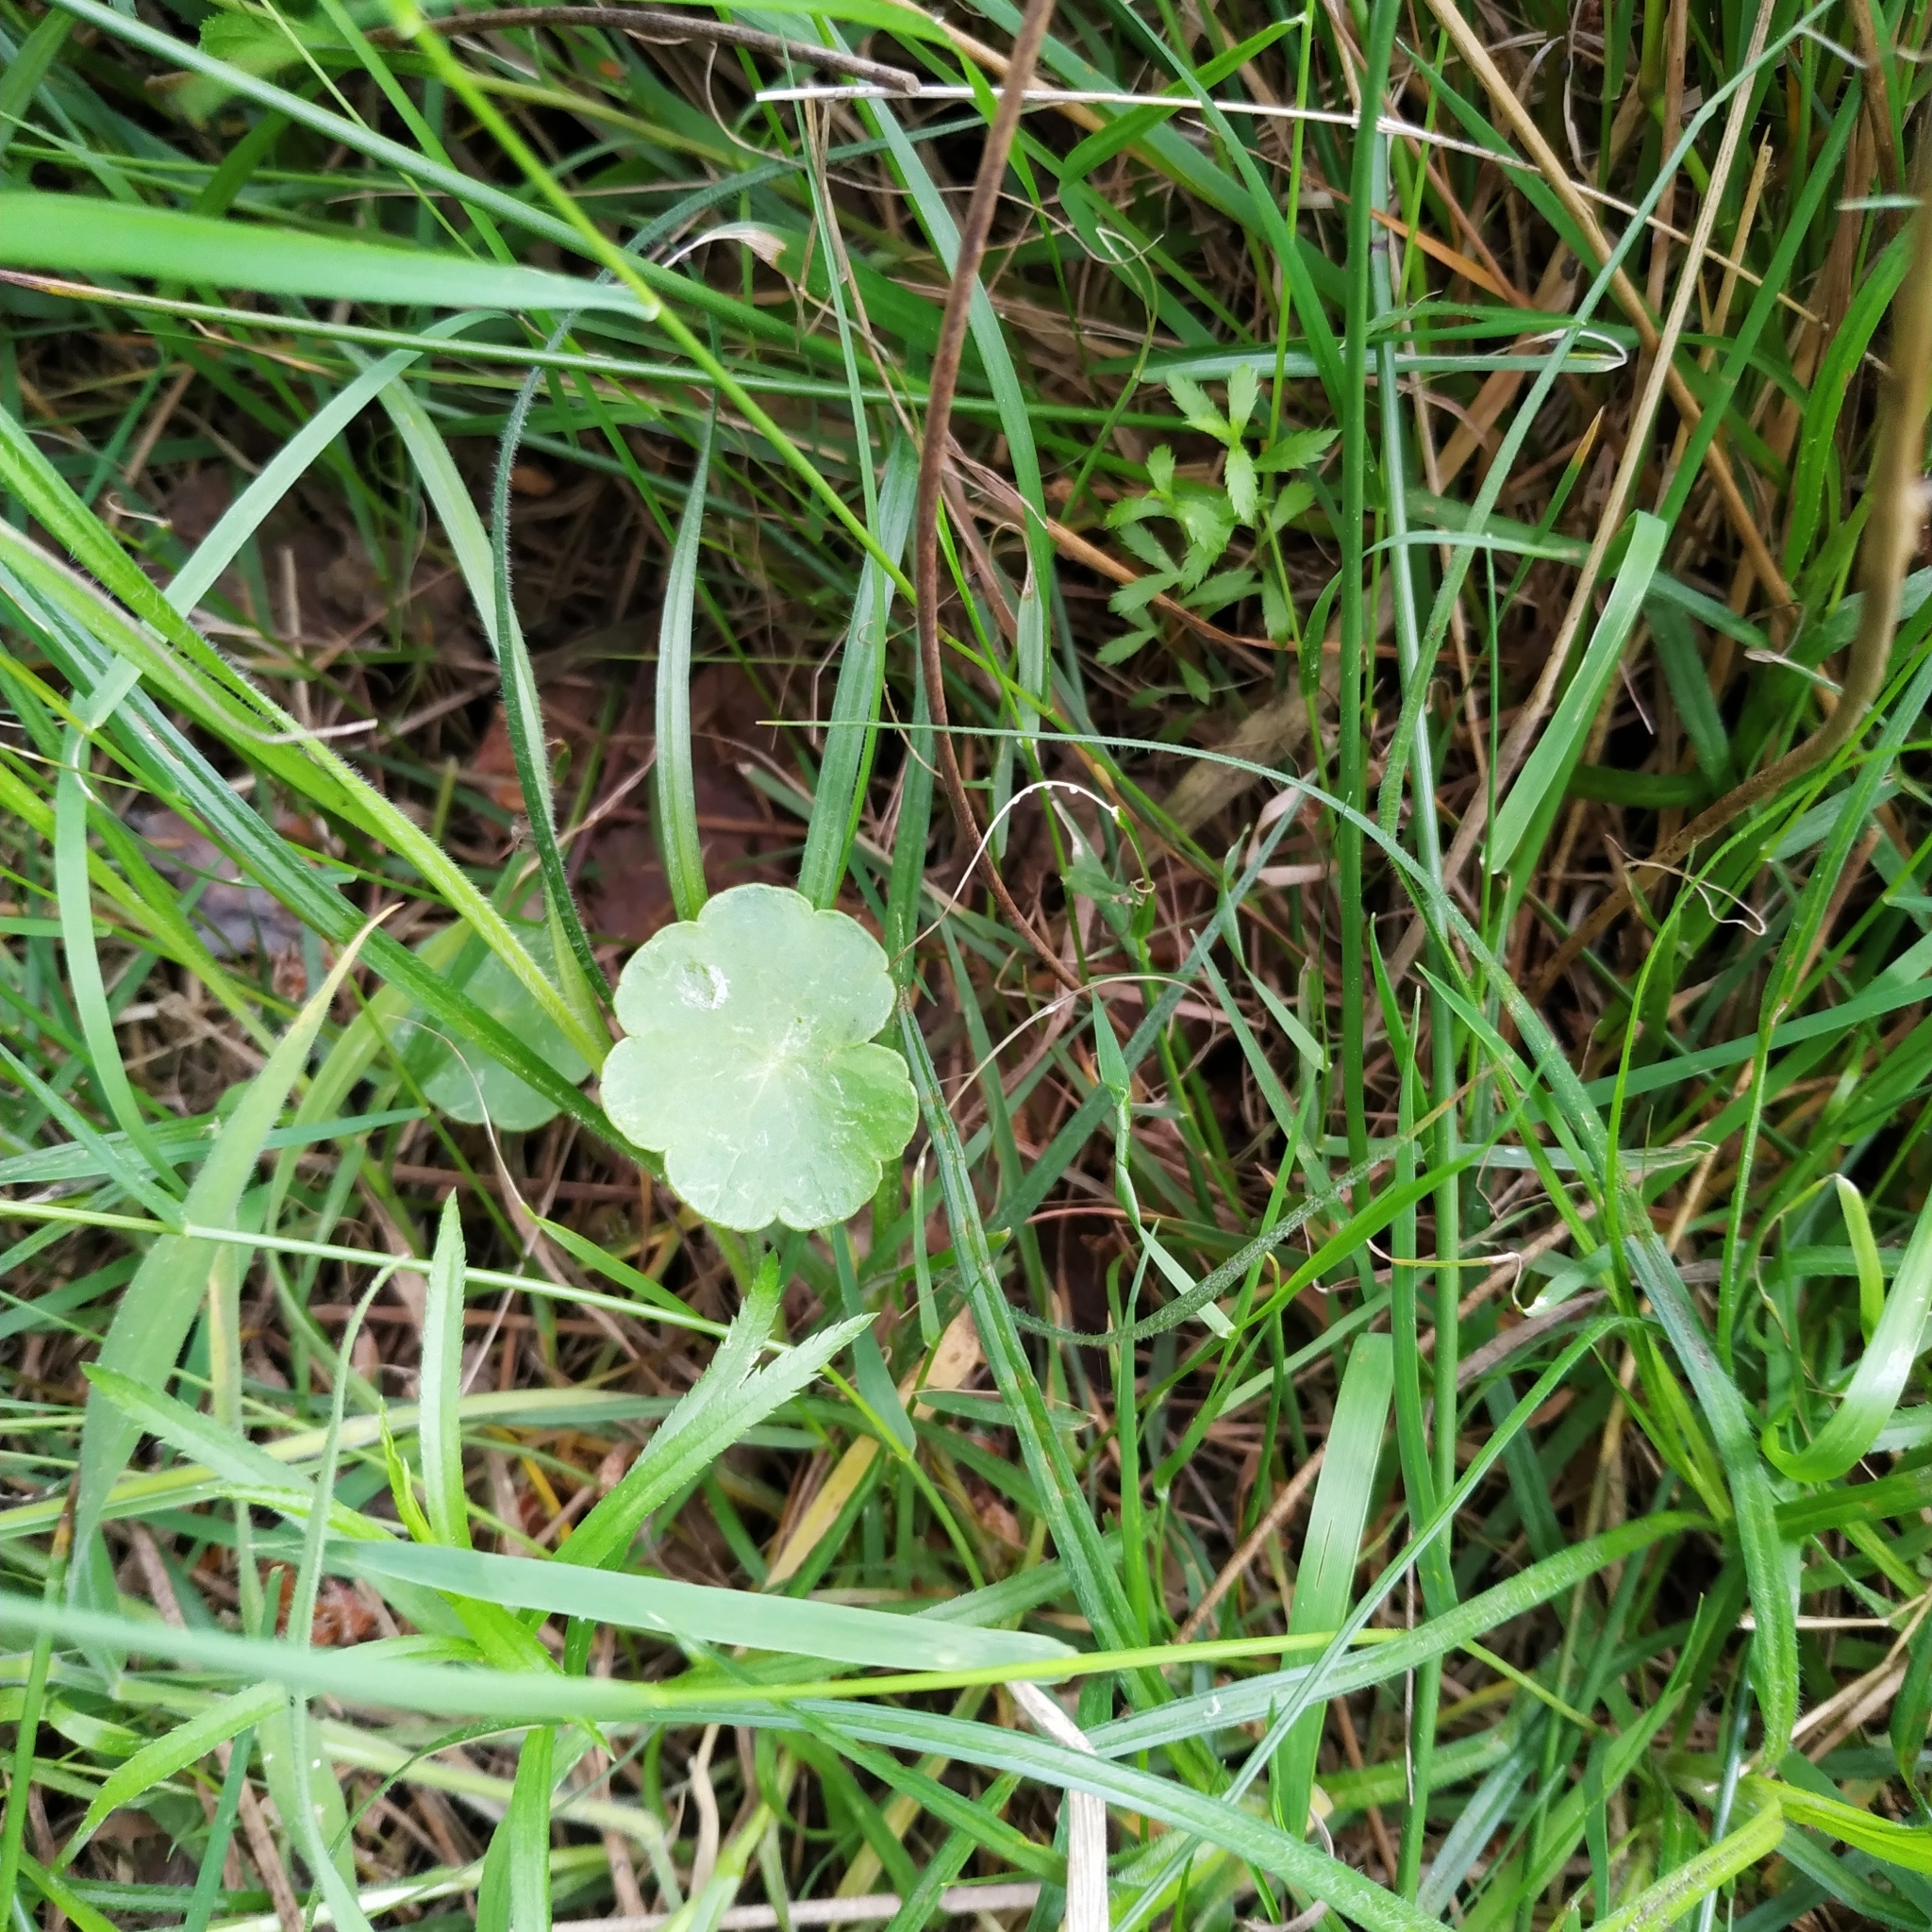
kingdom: Plantae
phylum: Tracheophyta
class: Magnoliopsida
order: Apiales
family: Araliaceae
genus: Hydrocotyle
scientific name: Hydrocotyle vulgaris
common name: Marsh pennywort
